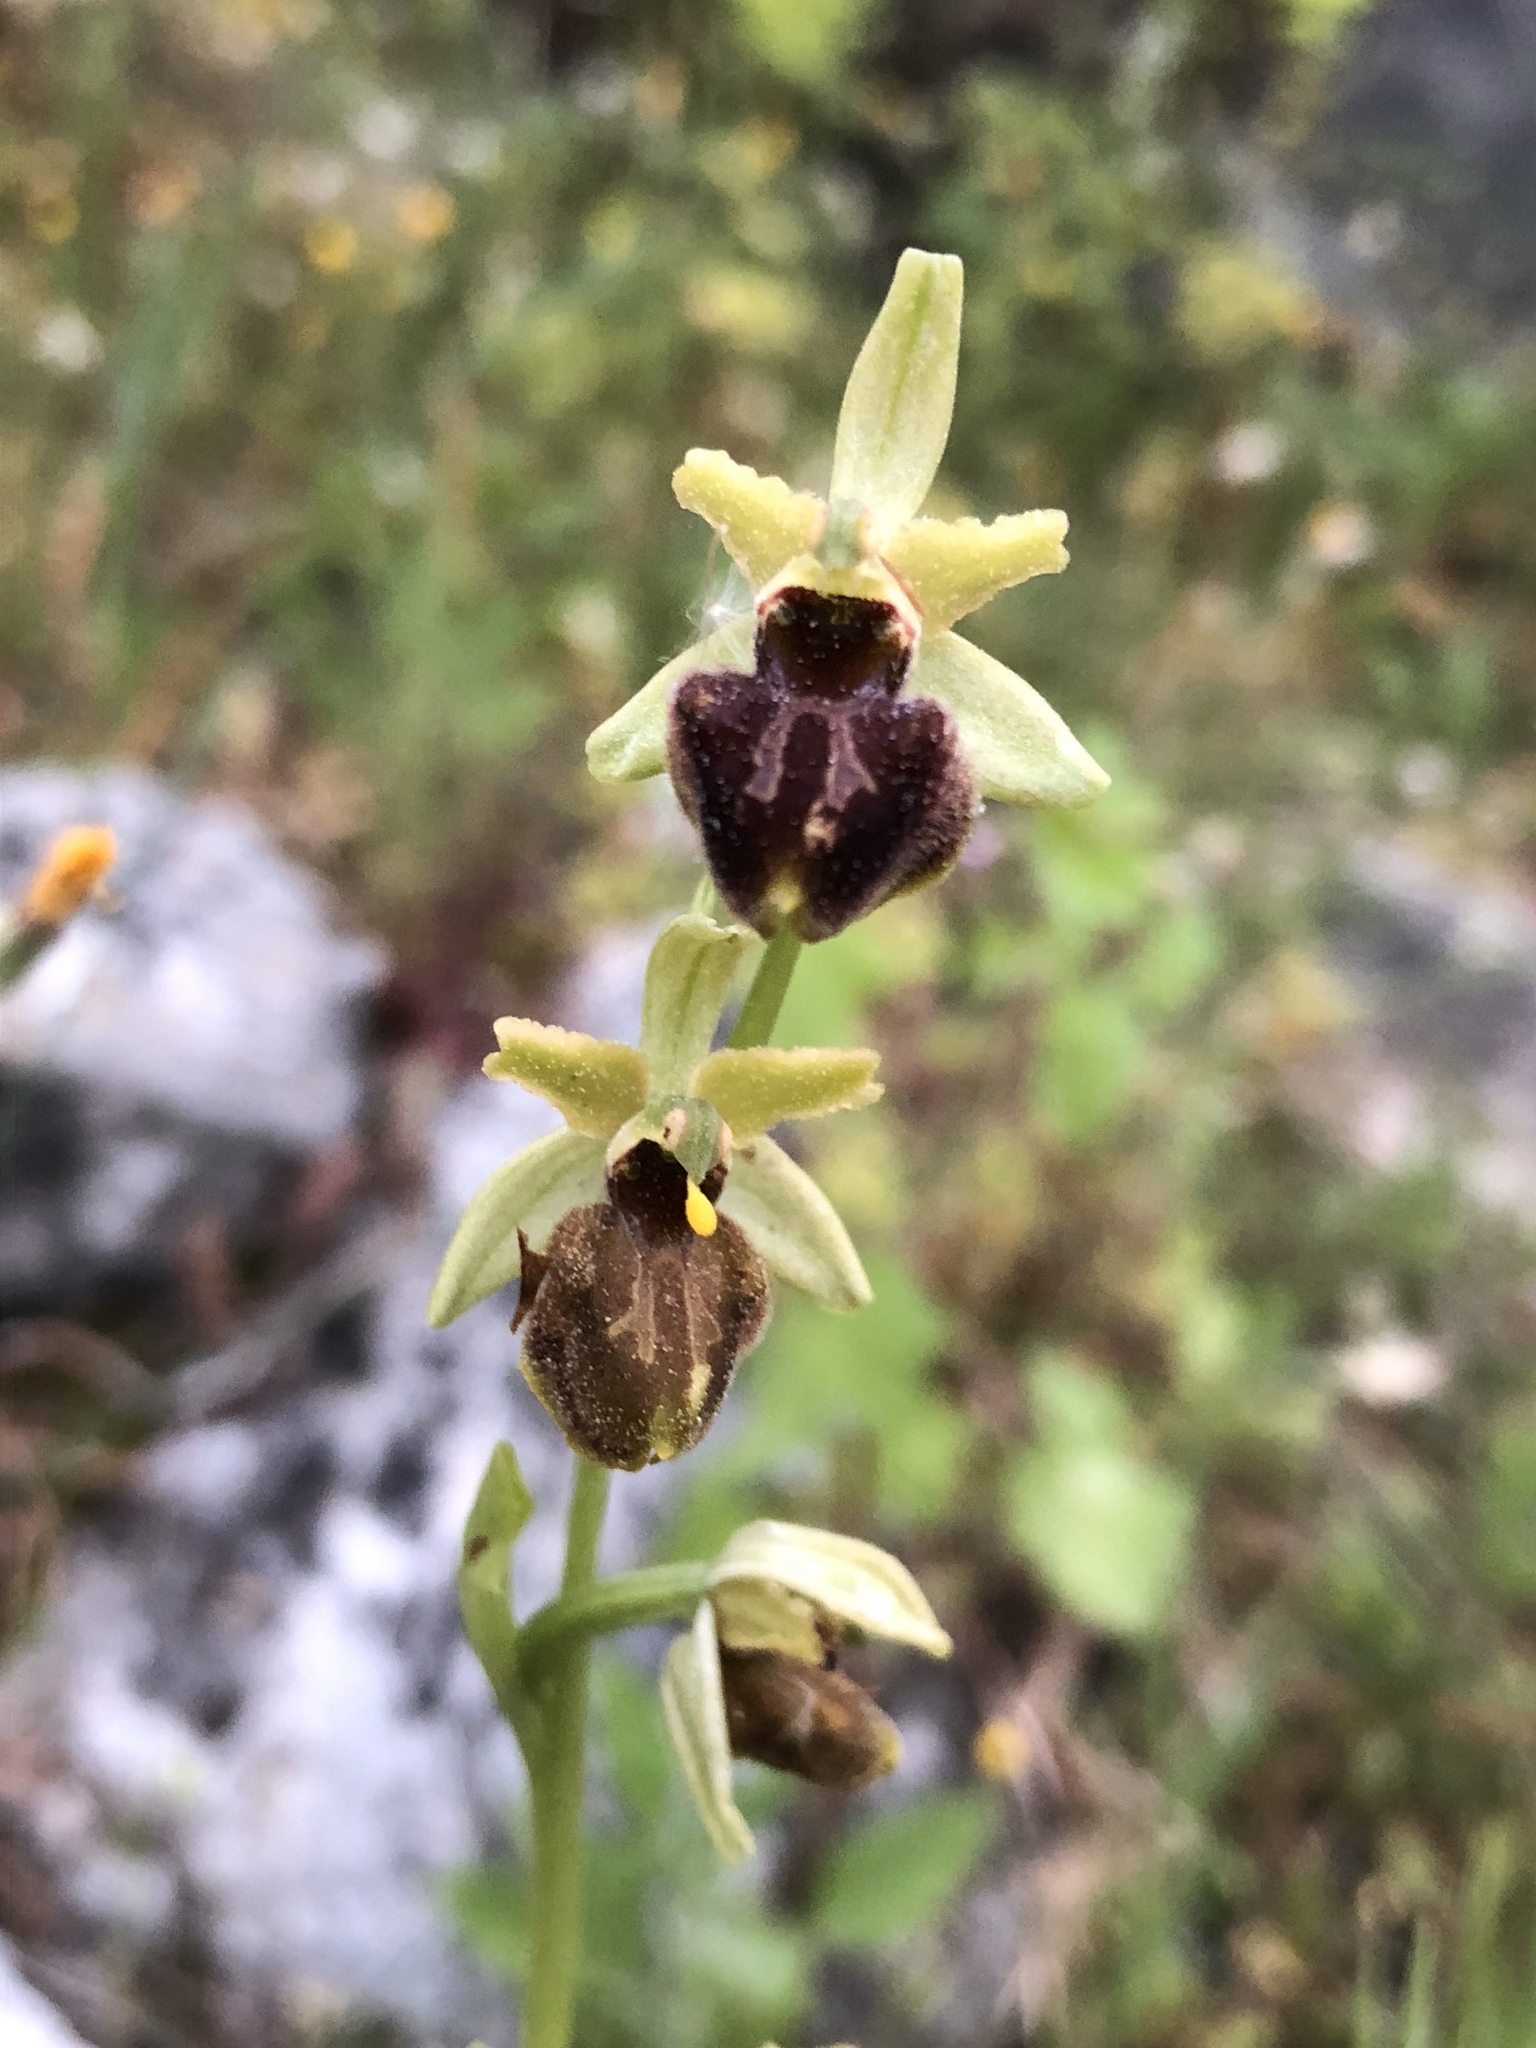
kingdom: Plantae
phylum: Tracheophyta
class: Liliopsida
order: Asparagales
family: Orchidaceae
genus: Ophrys
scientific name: Ophrys sphegodes
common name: Early spider-orchid
